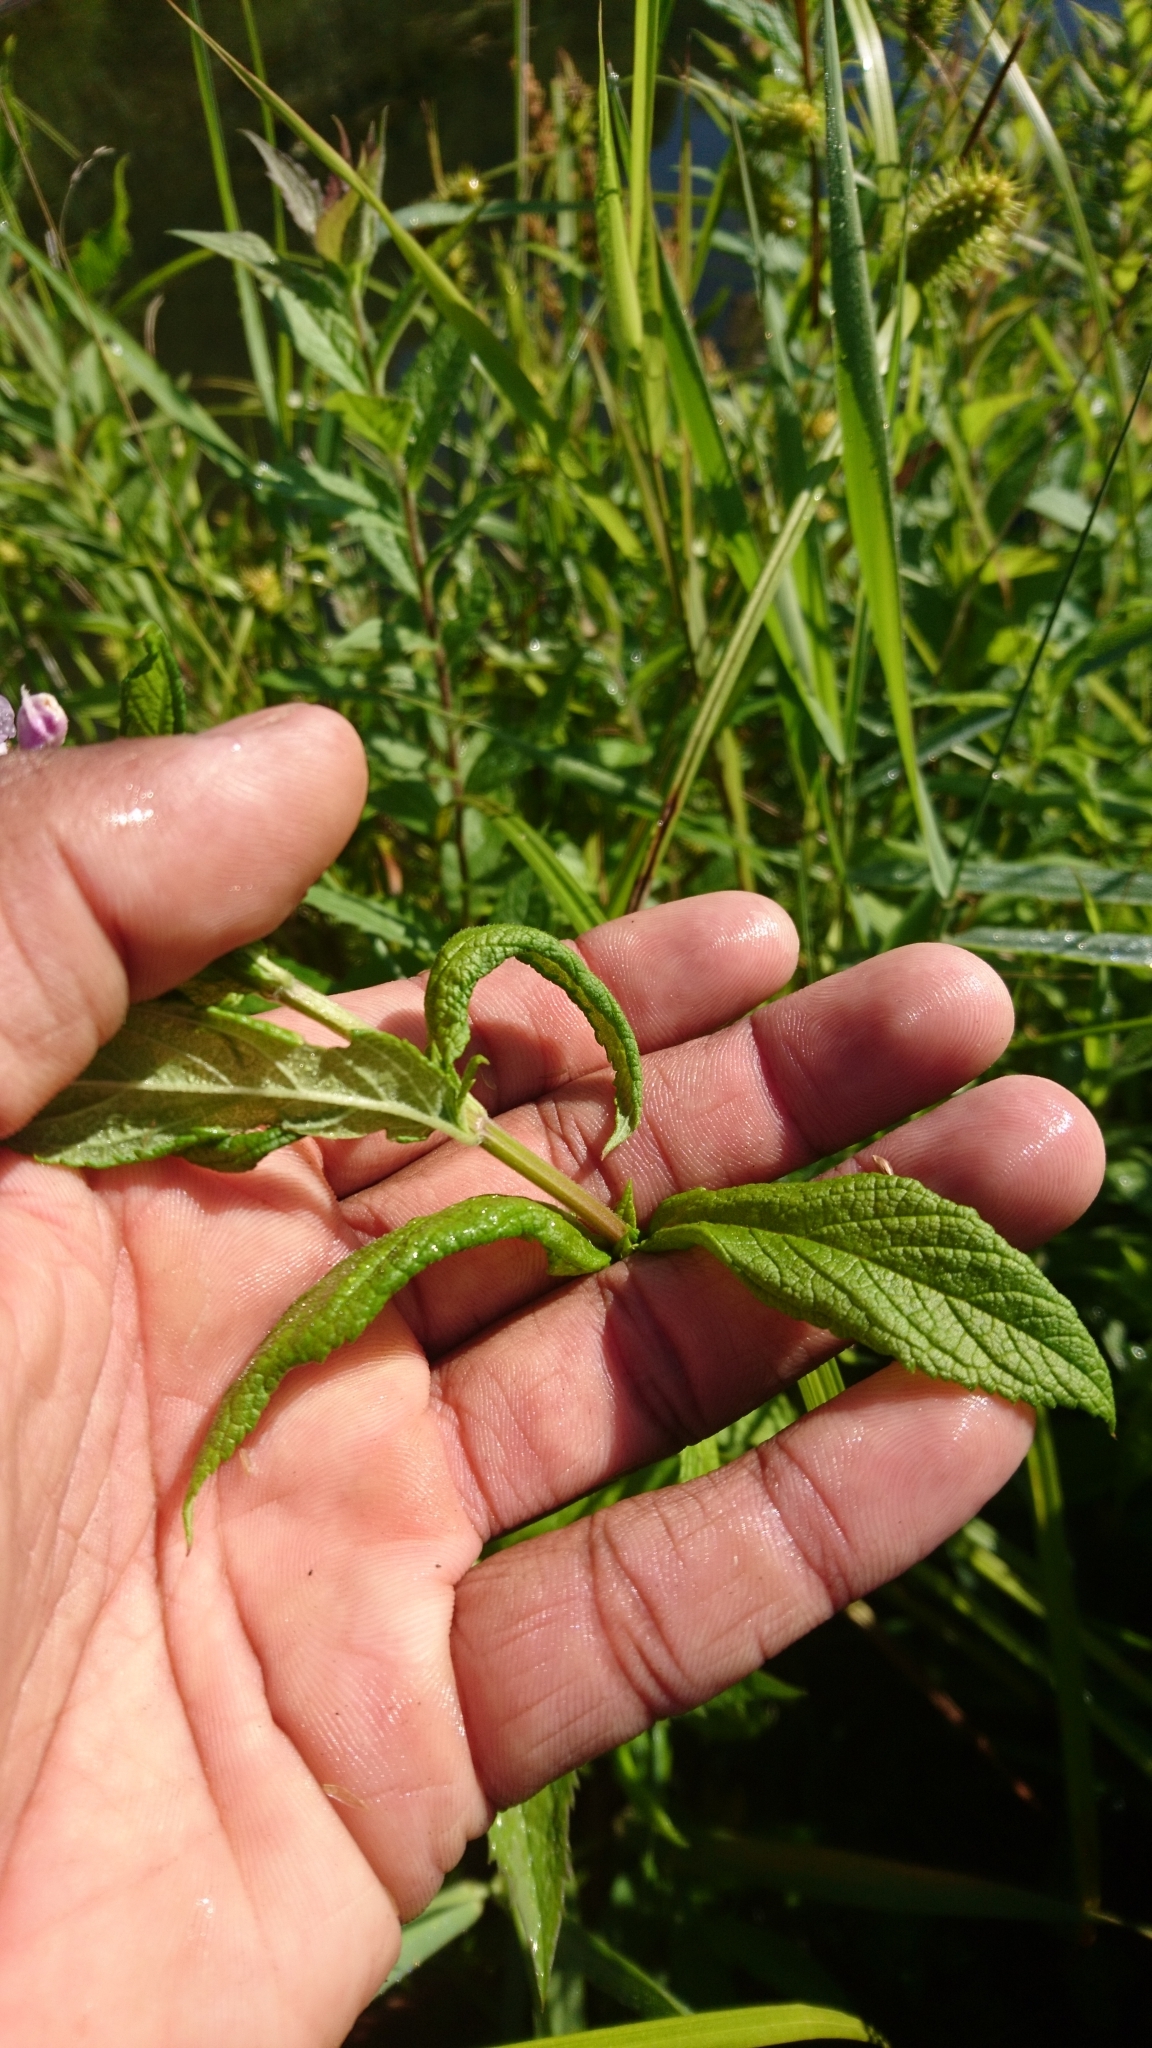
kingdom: Plantae
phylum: Tracheophyta
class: Magnoliopsida
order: Lamiales
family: Lamiaceae
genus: Teucrium
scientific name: Teucrium canadense
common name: American germander
